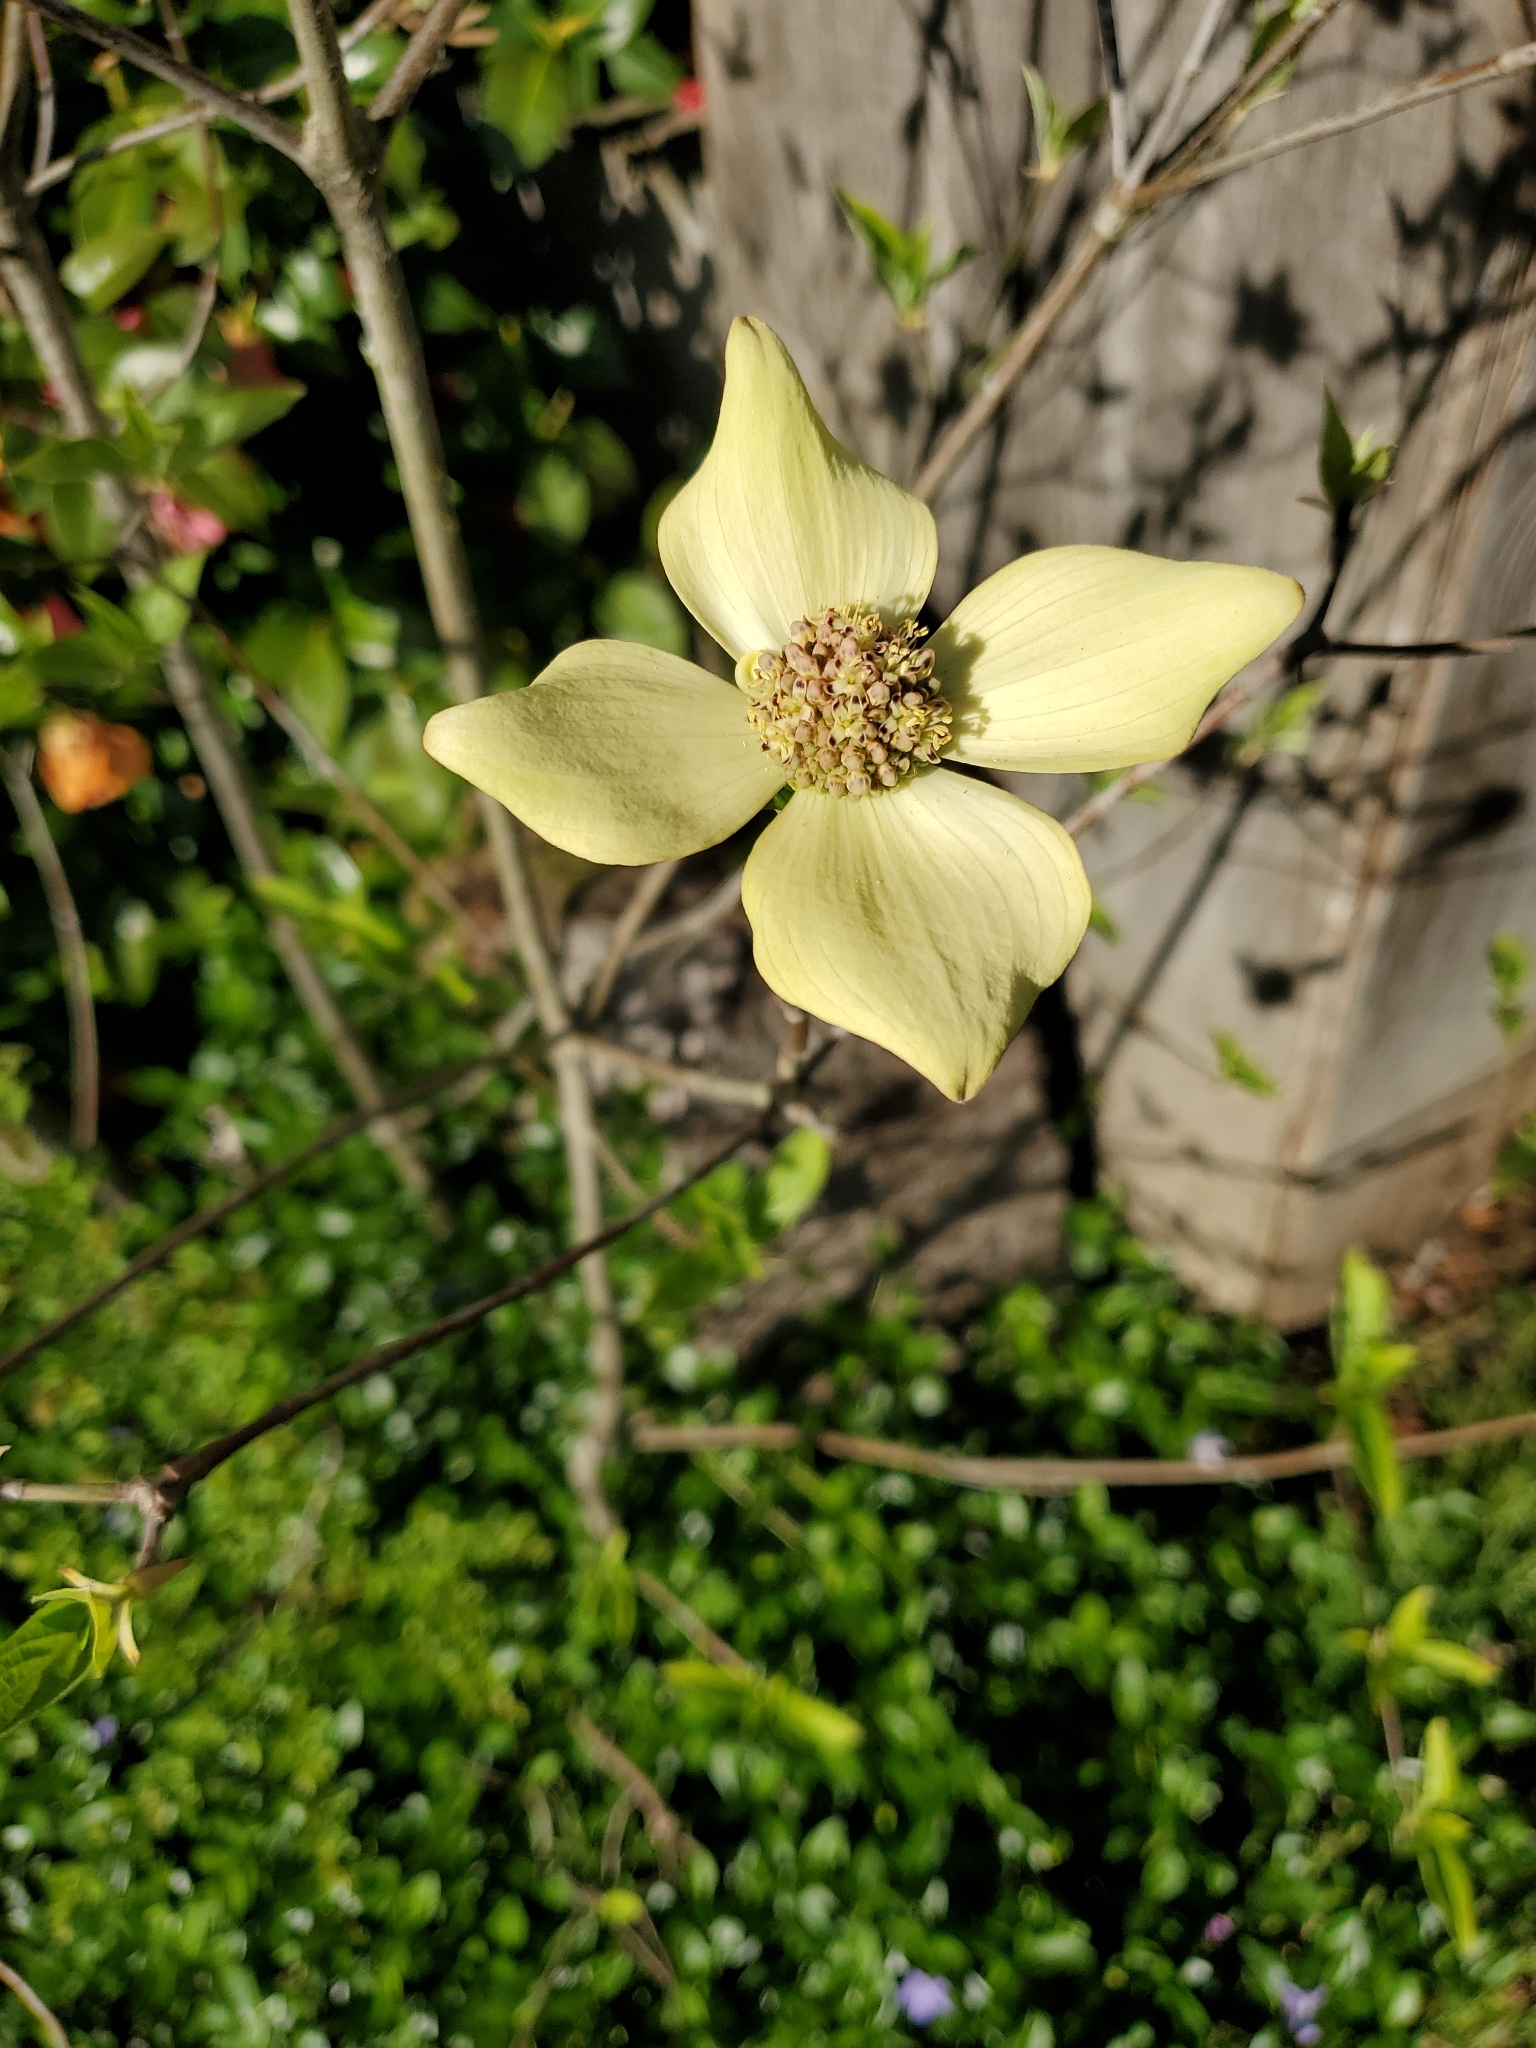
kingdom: Plantae
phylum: Tracheophyta
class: Magnoliopsida
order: Cornales
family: Cornaceae
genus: Cornus
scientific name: Cornus nuttallii
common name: Pacific dogwood
